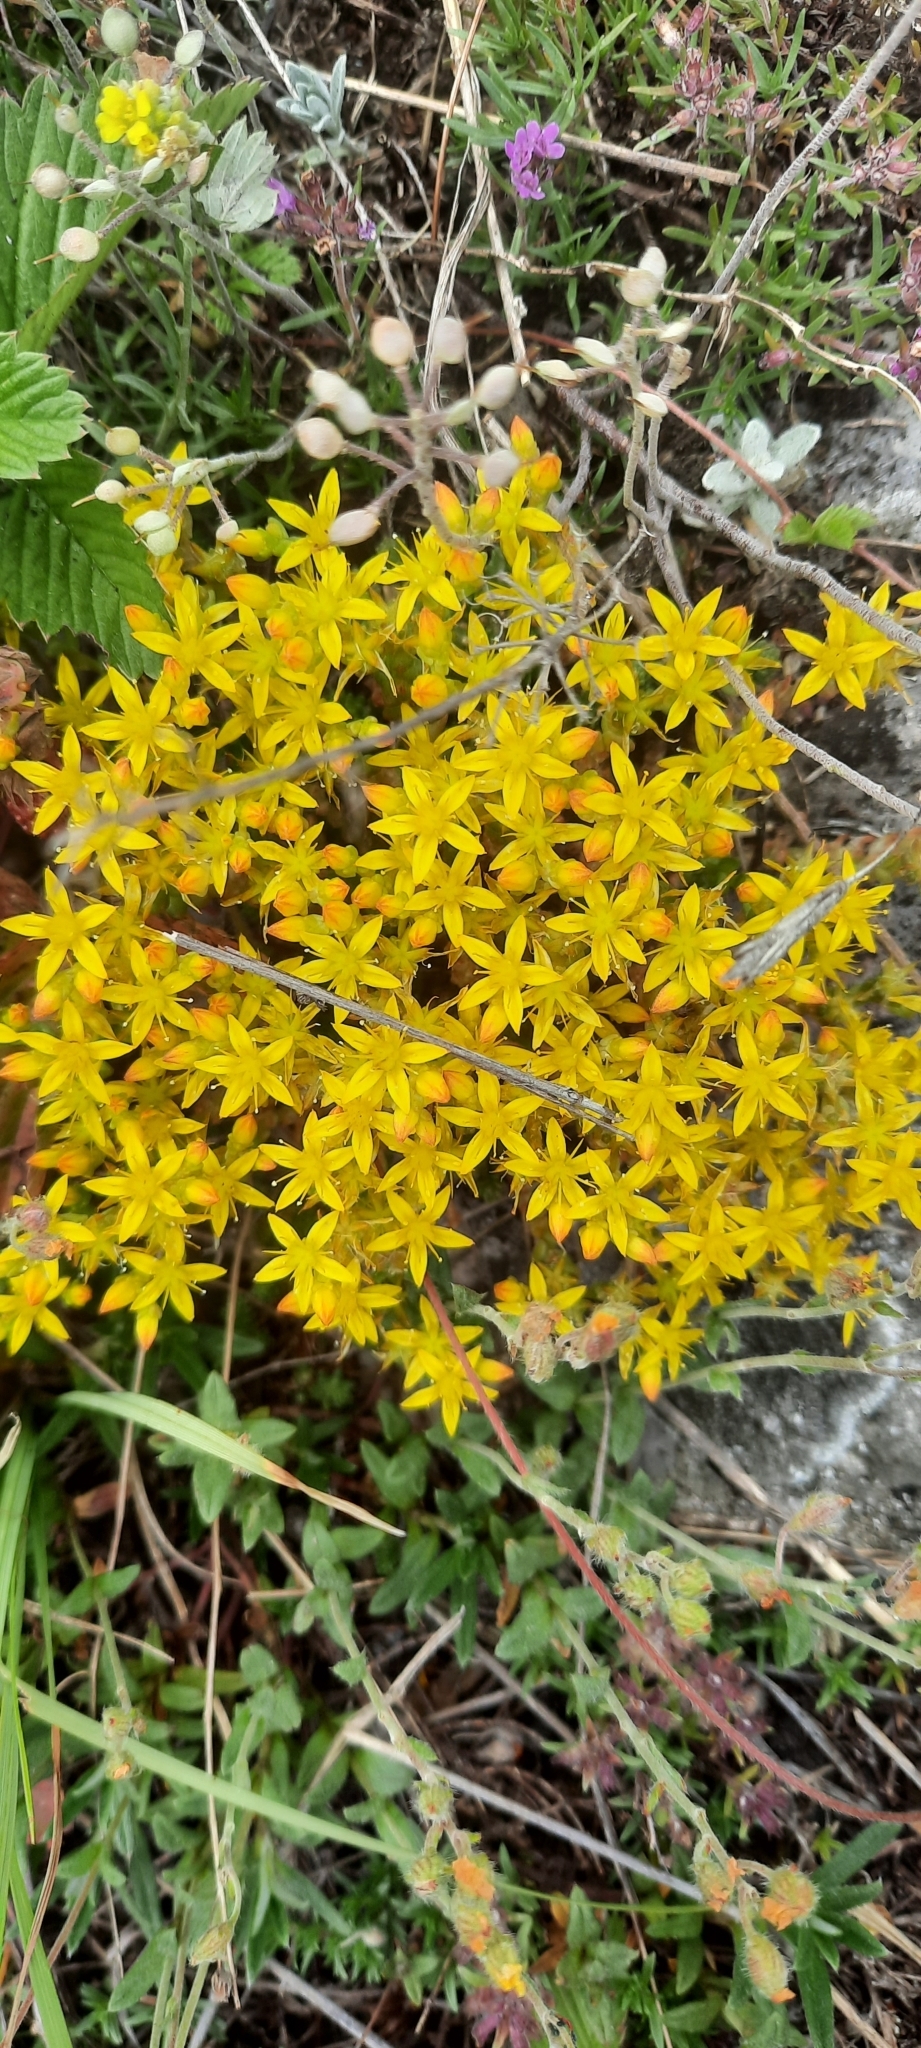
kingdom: Plantae
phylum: Tracheophyta
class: Magnoliopsida
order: Saxifragales
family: Crassulaceae
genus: Sedum
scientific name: Sedum acre
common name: Biting stonecrop
